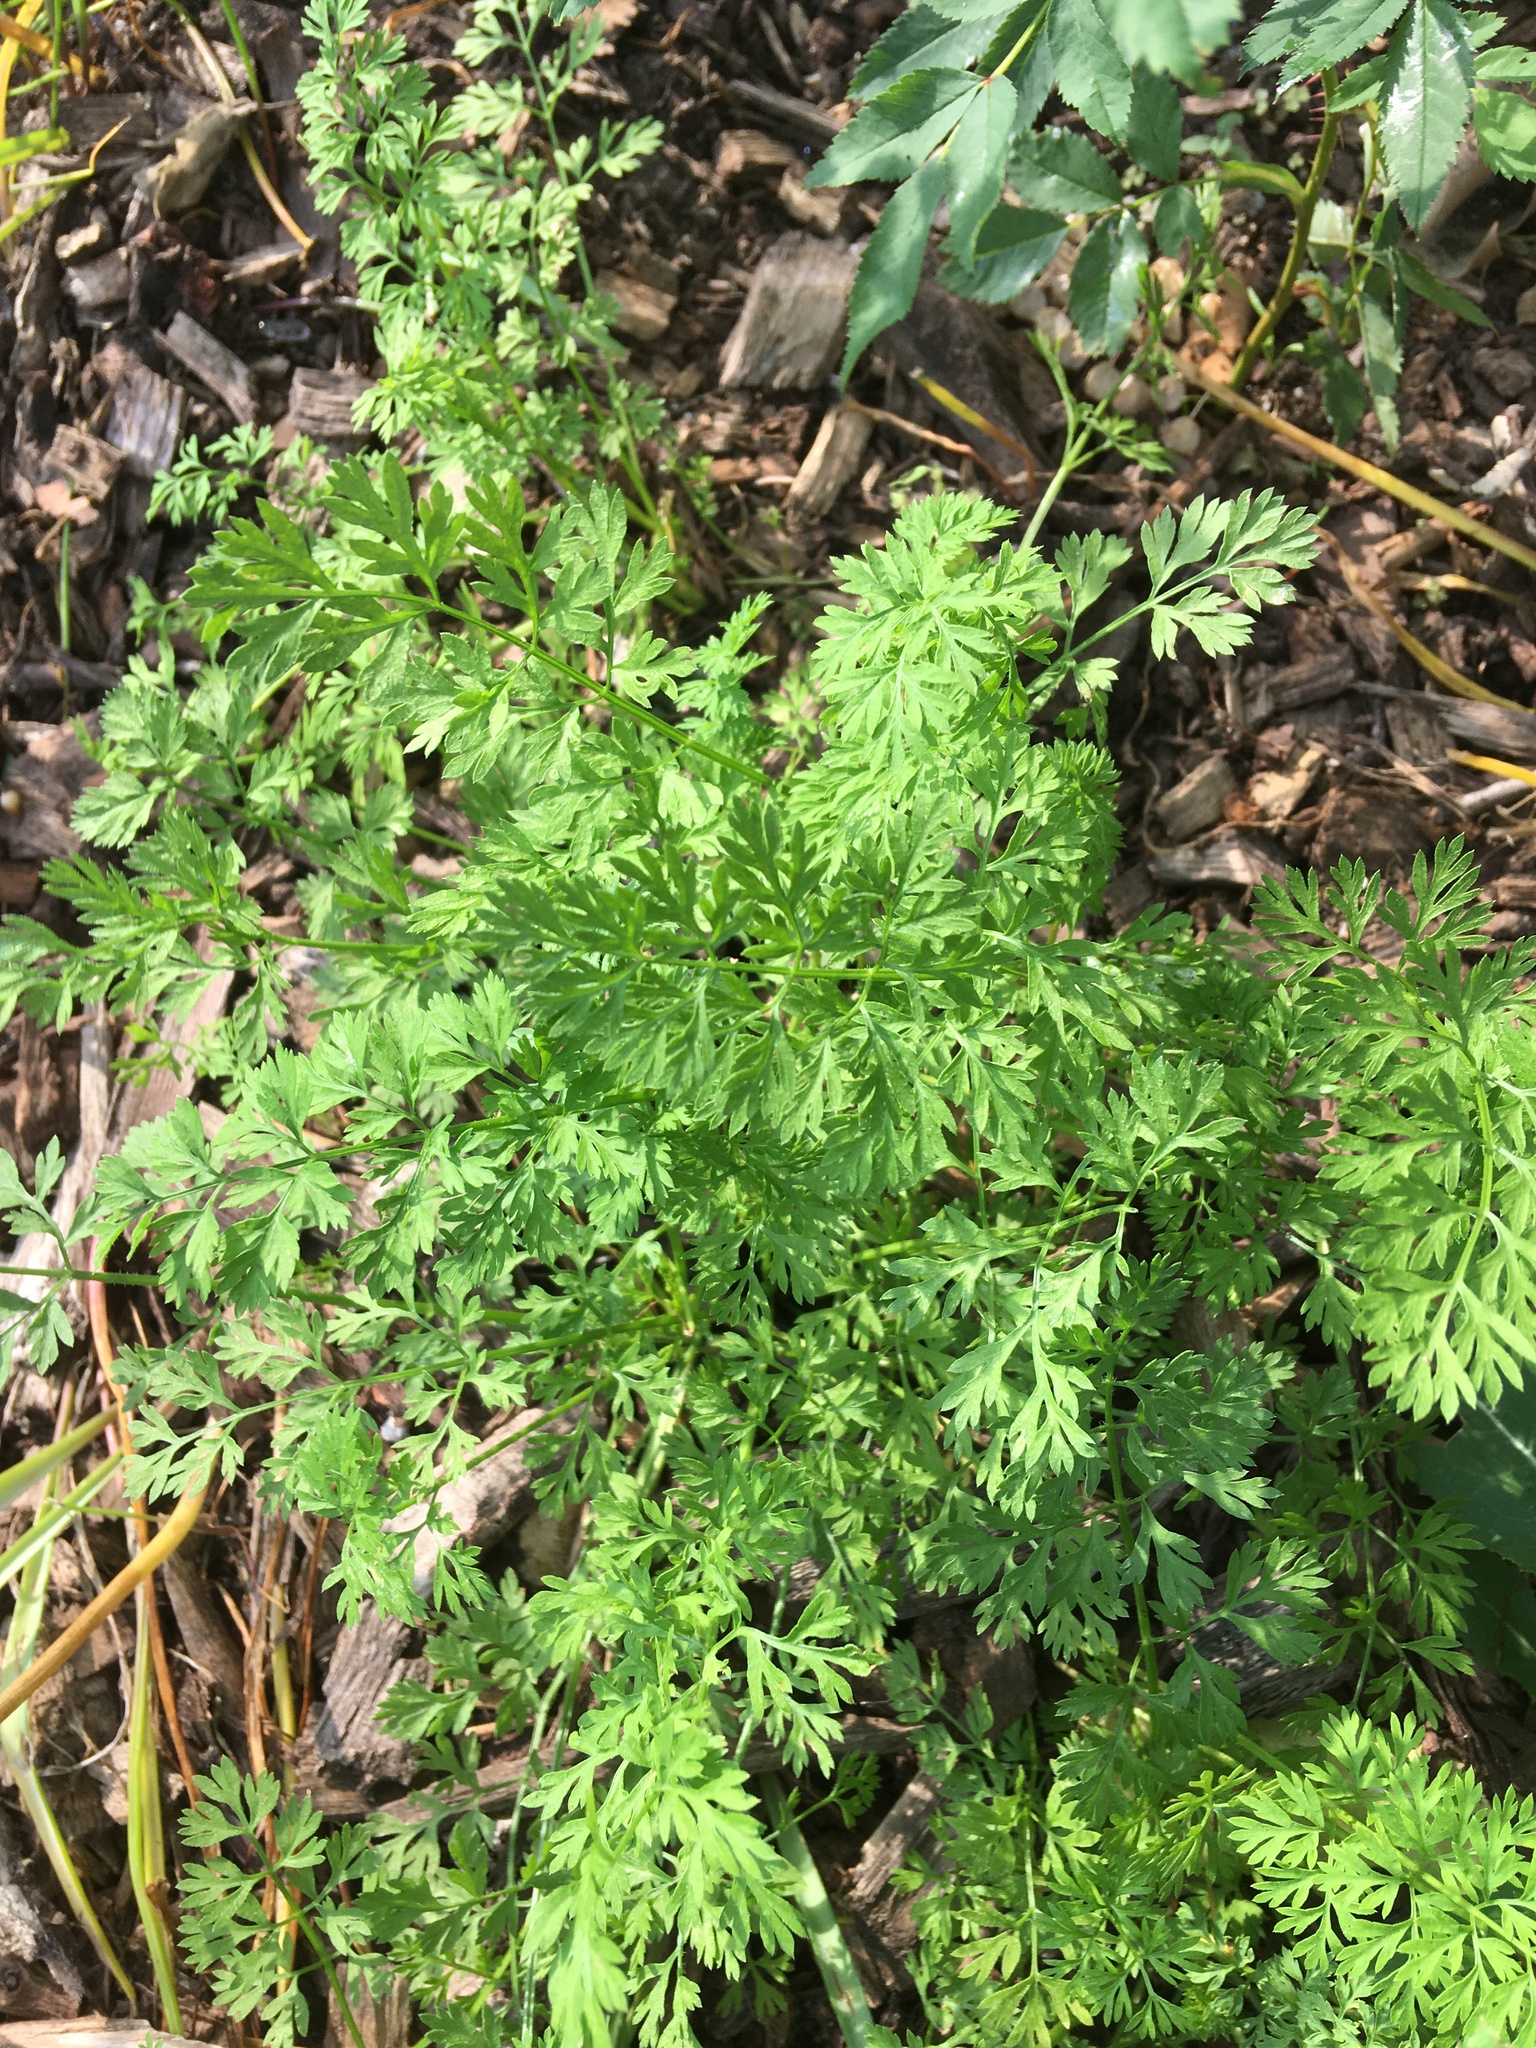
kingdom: Plantae
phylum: Tracheophyta
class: Magnoliopsida
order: Apiales
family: Apiaceae
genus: Daucus
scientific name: Daucus carota
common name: Wild carrot
